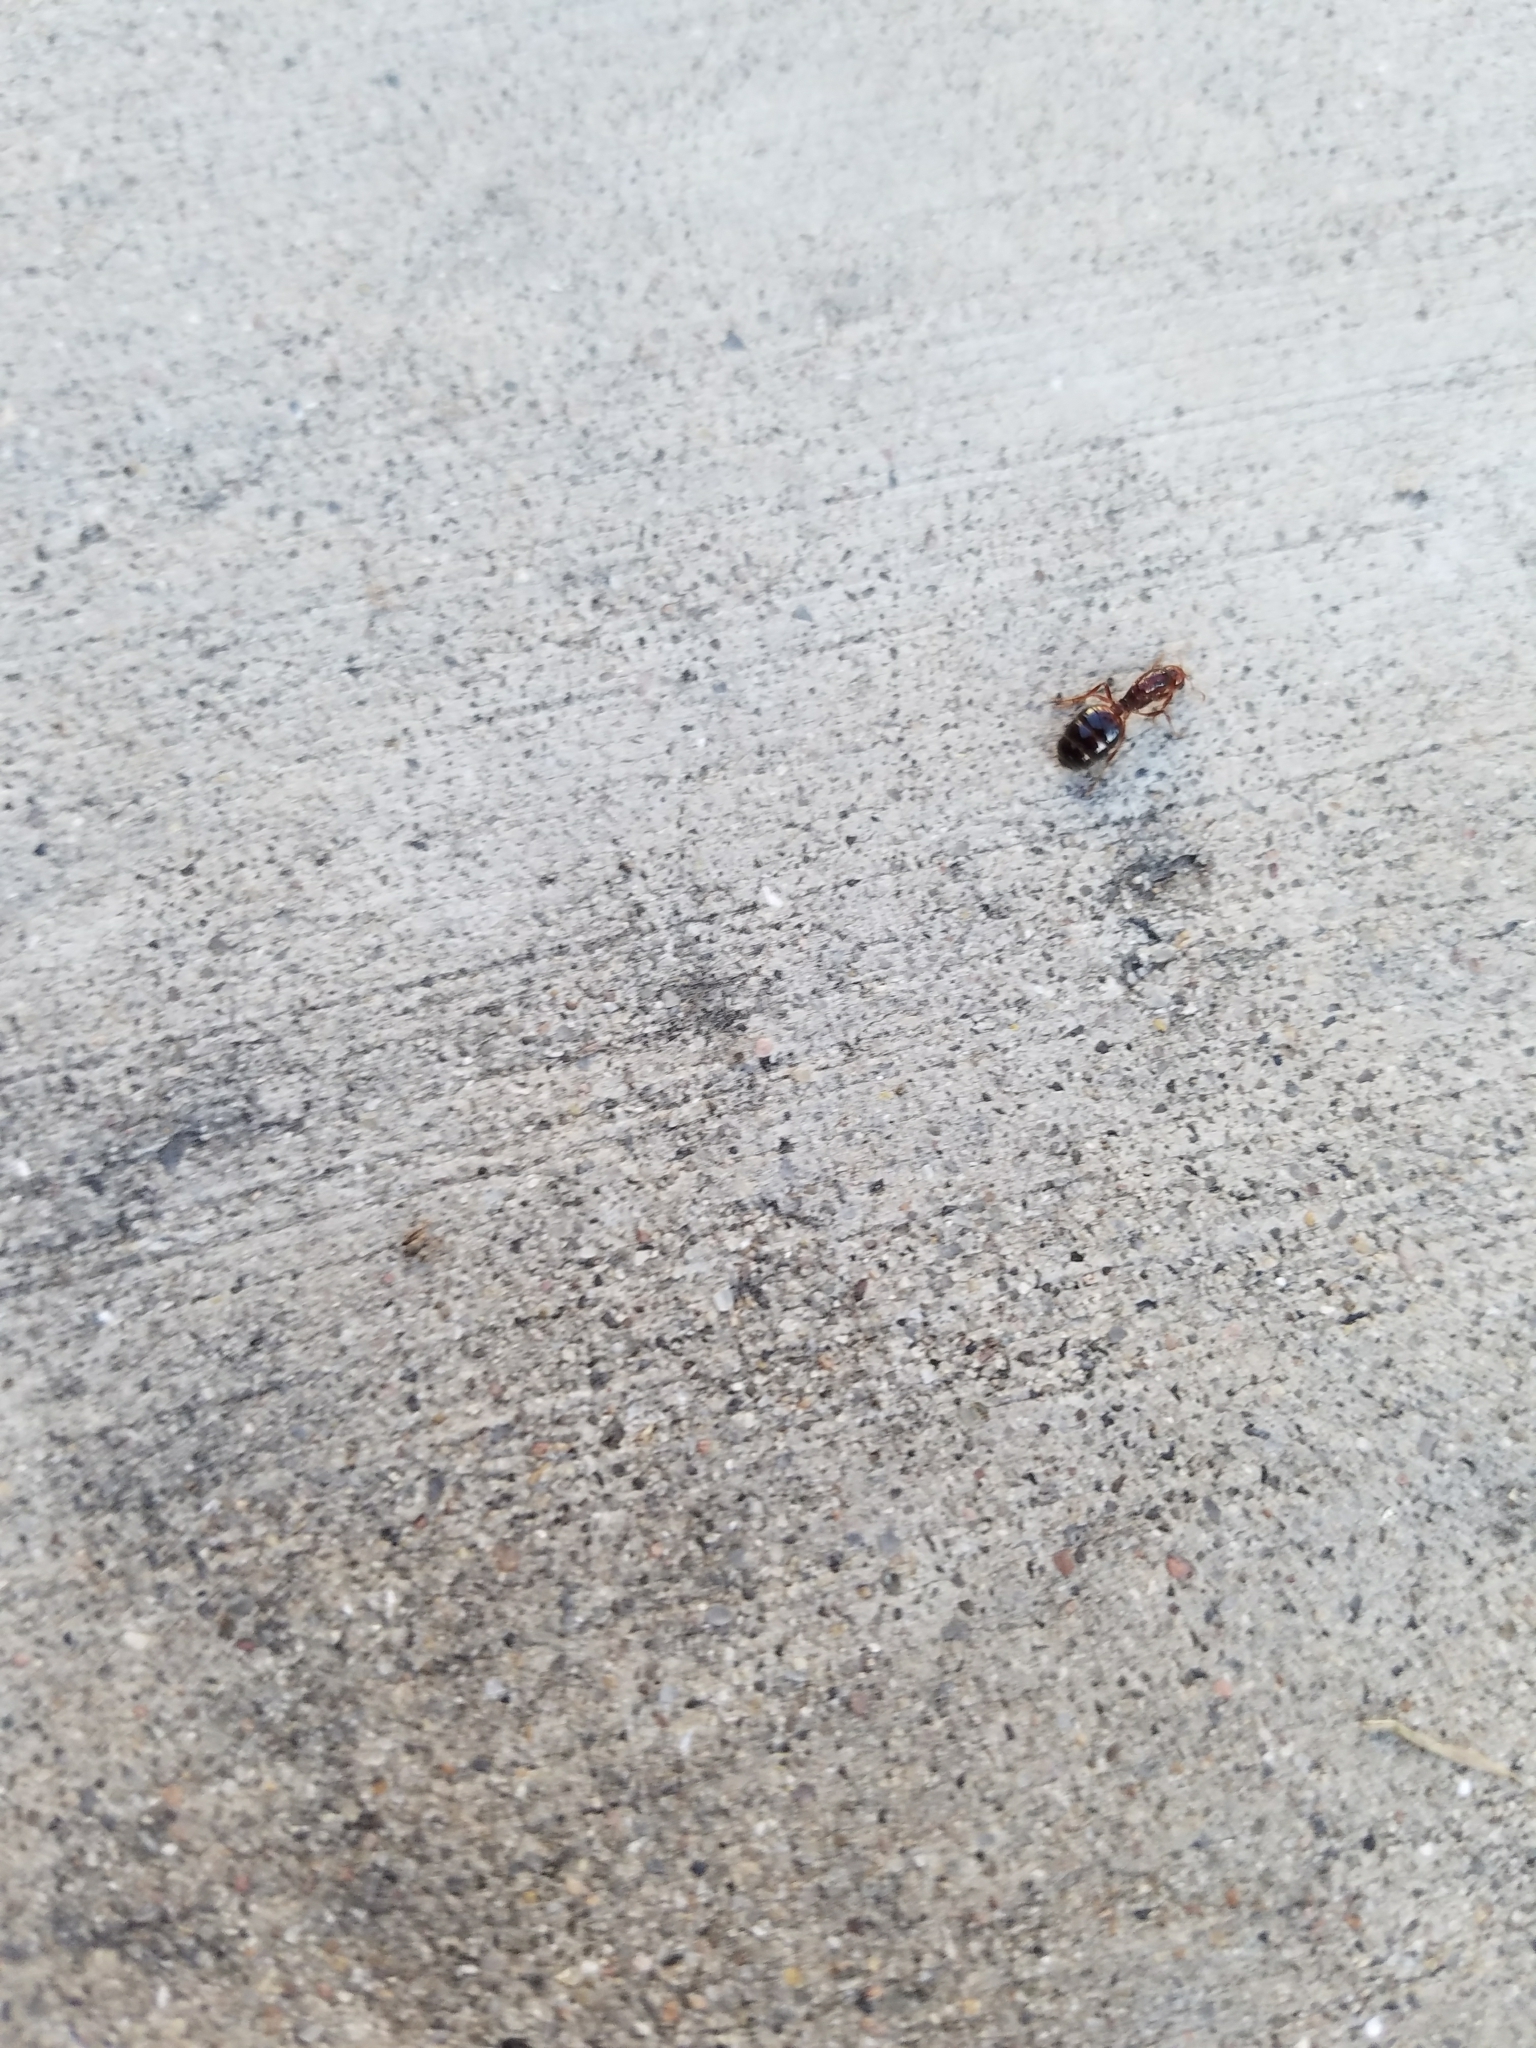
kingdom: Animalia
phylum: Arthropoda
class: Insecta
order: Hymenoptera
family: Formicidae
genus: Solenopsis
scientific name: Solenopsis invicta
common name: Red imported fire ant
